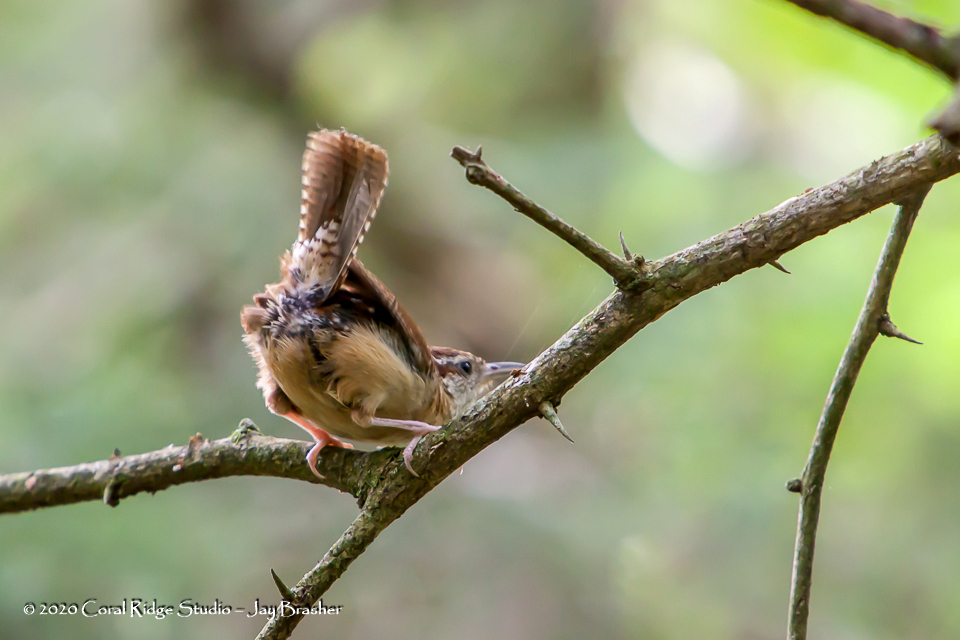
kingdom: Animalia
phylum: Chordata
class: Aves
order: Passeriformes
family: Troglodytidae
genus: Thryothorus
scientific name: Thryothorus ludovicianus
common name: Carolina wren
